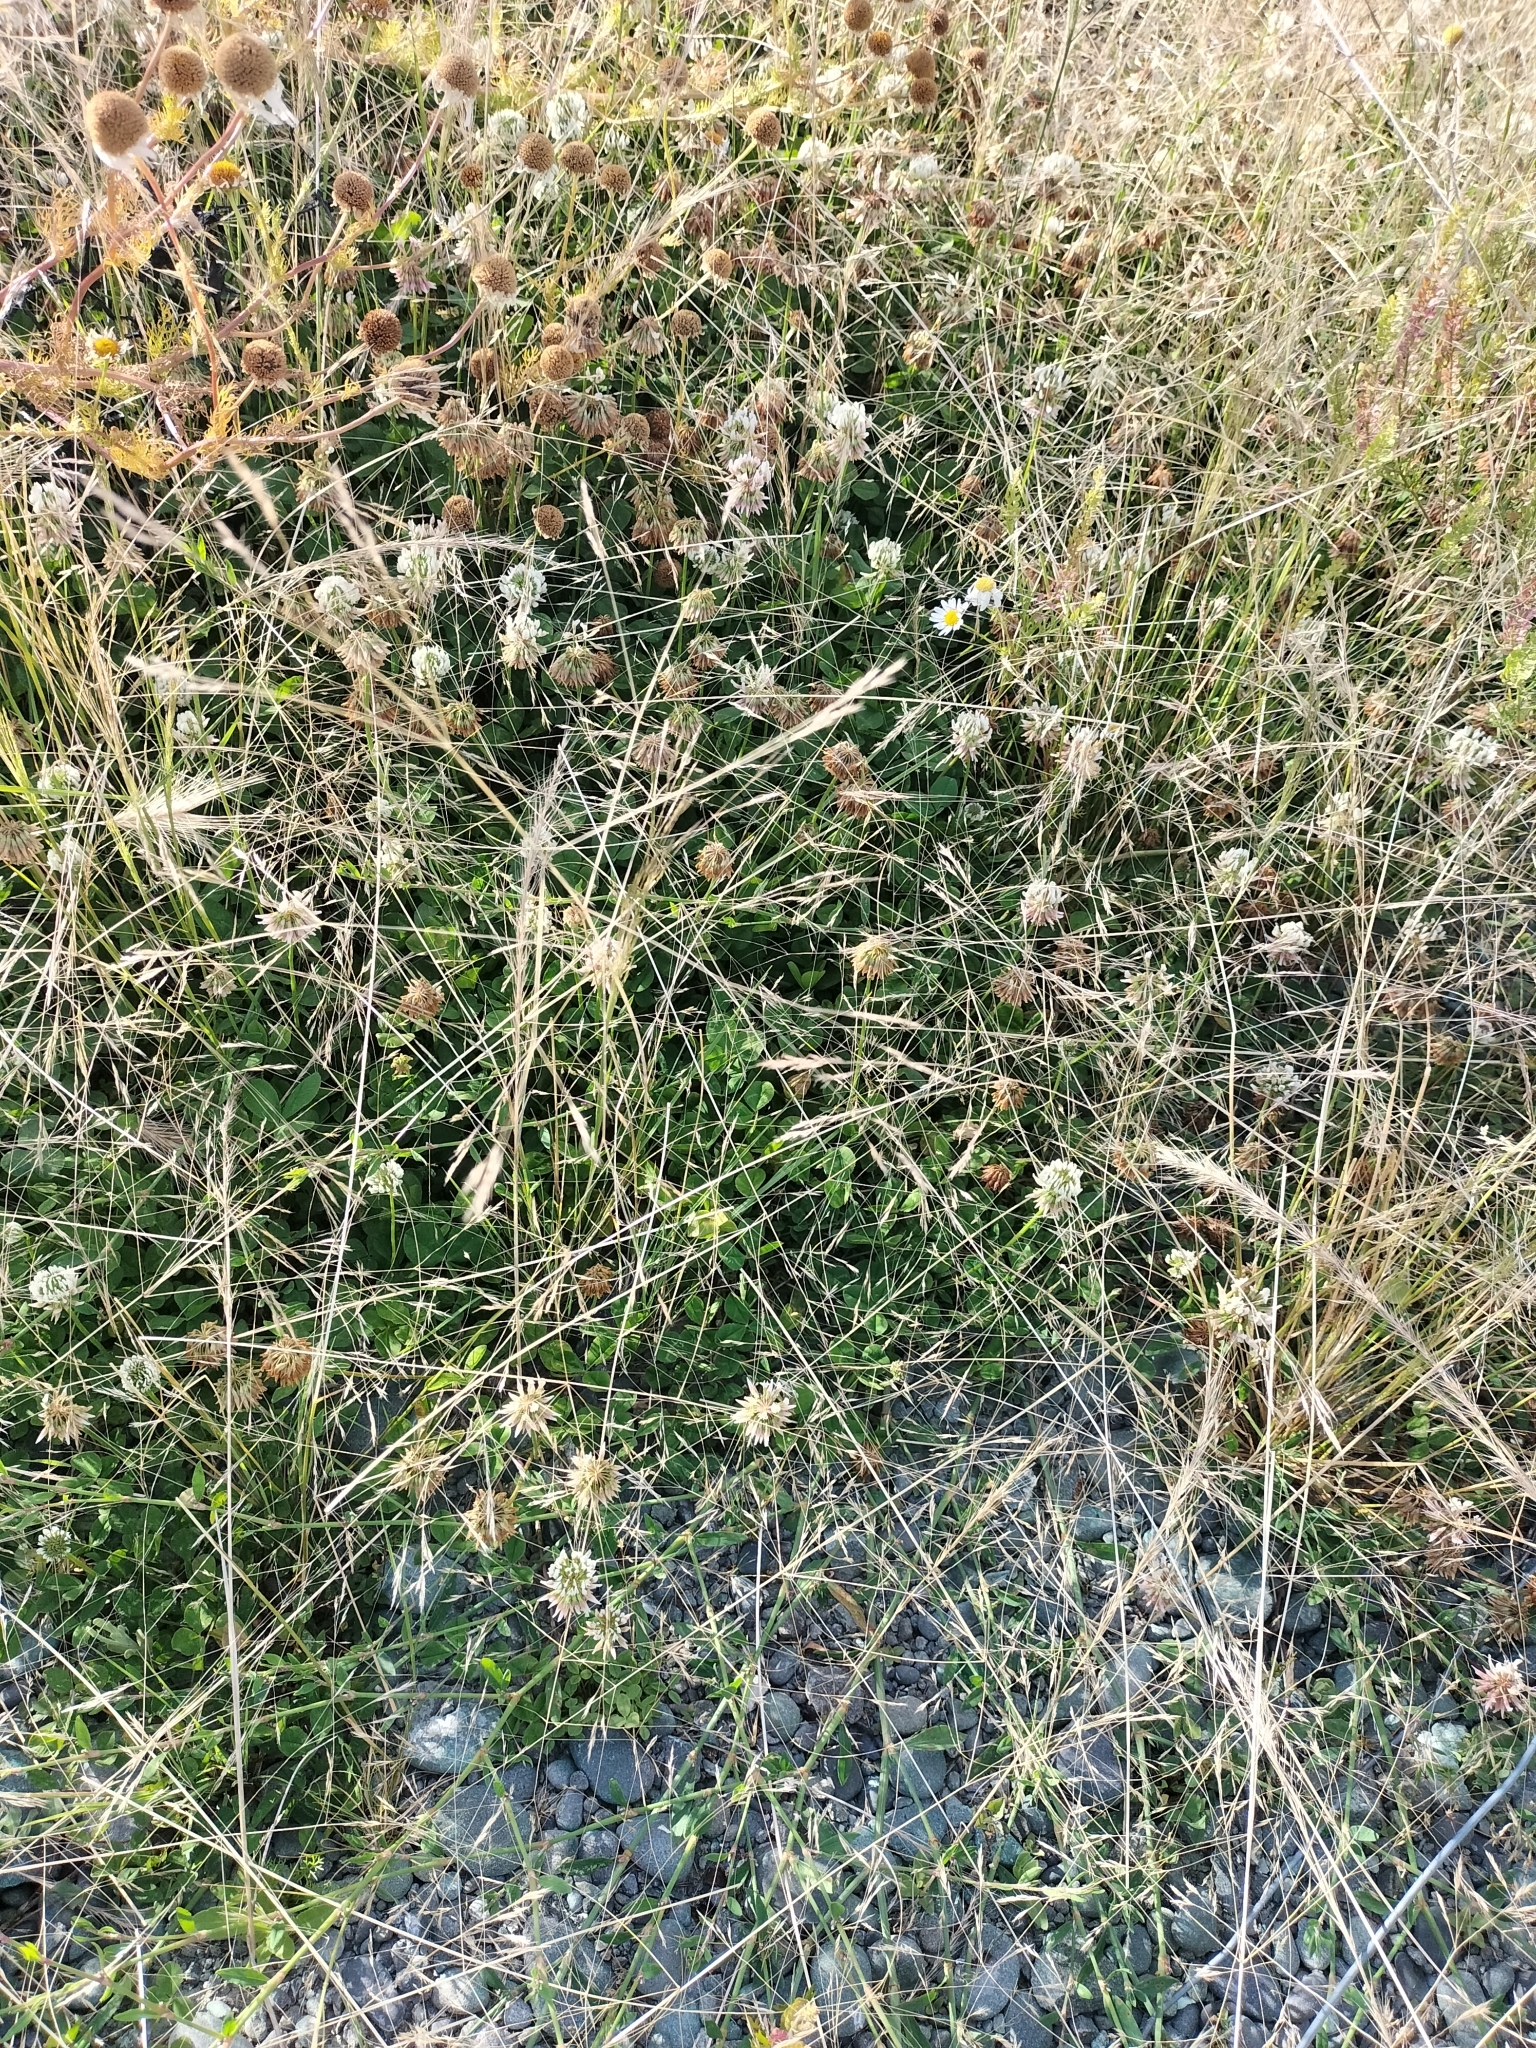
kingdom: Plantae
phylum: Tracheophyta
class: Magnoliopsida
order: Fabales
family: Fabaceae
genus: Trifolium
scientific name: Trifolium repens
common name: White clover
